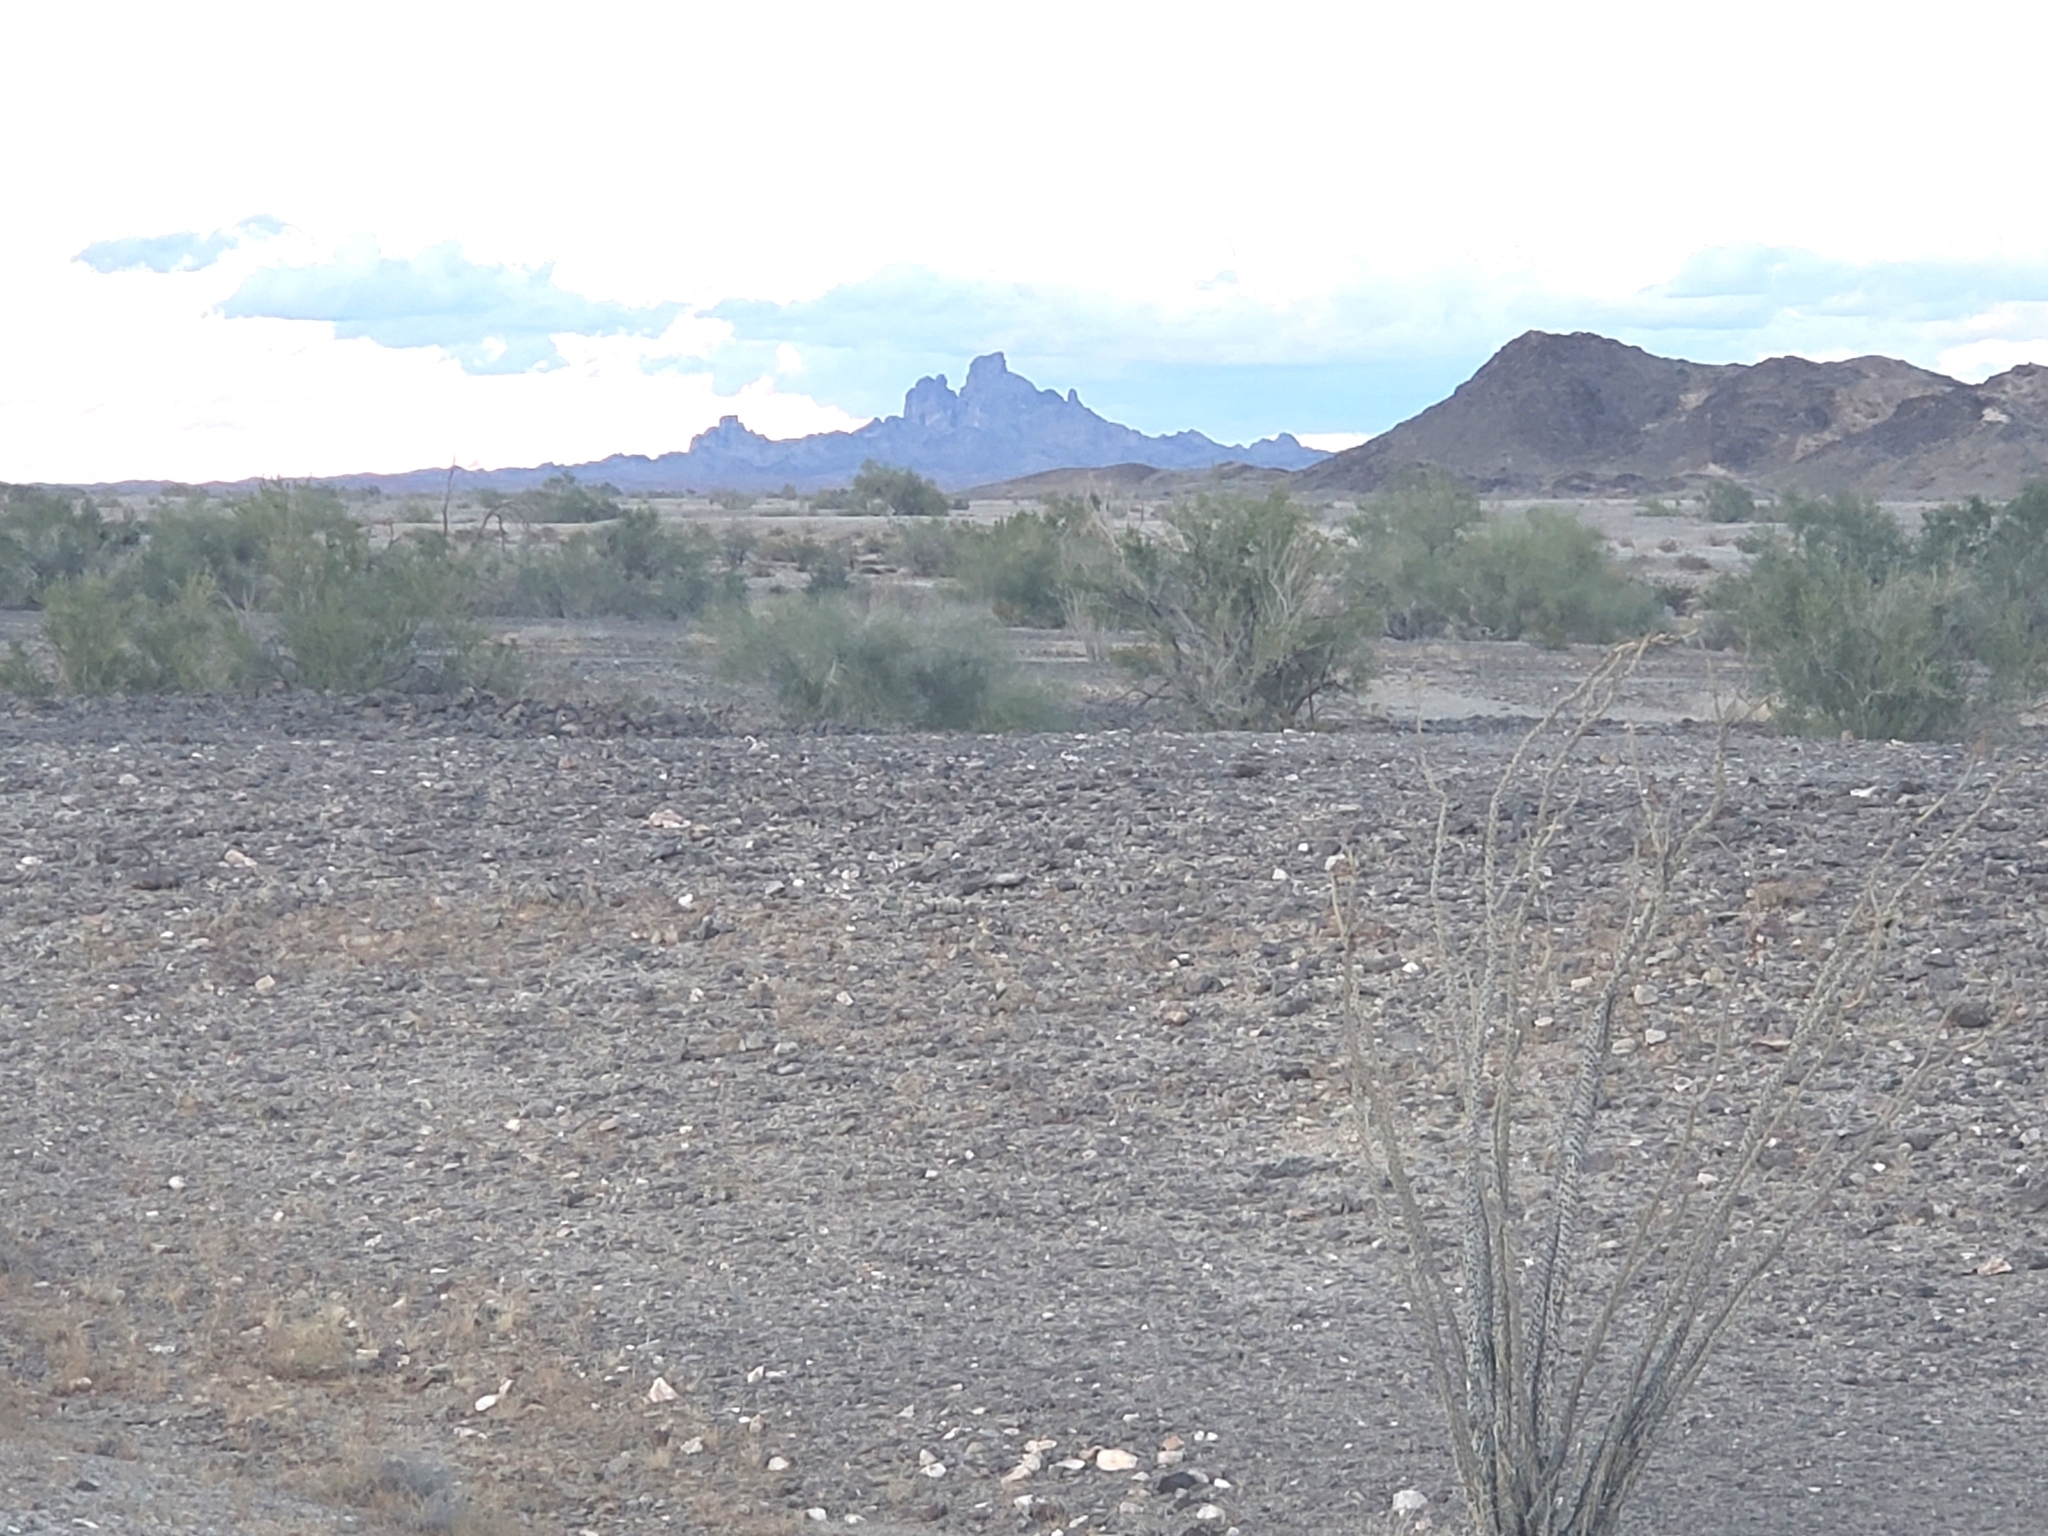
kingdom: Plantae
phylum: Tracheophyta
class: Magnoliopsida
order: Ericales
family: Fouquieriaceae
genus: Fouquieria
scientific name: Fouquieria splendens
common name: Vine-cactus
